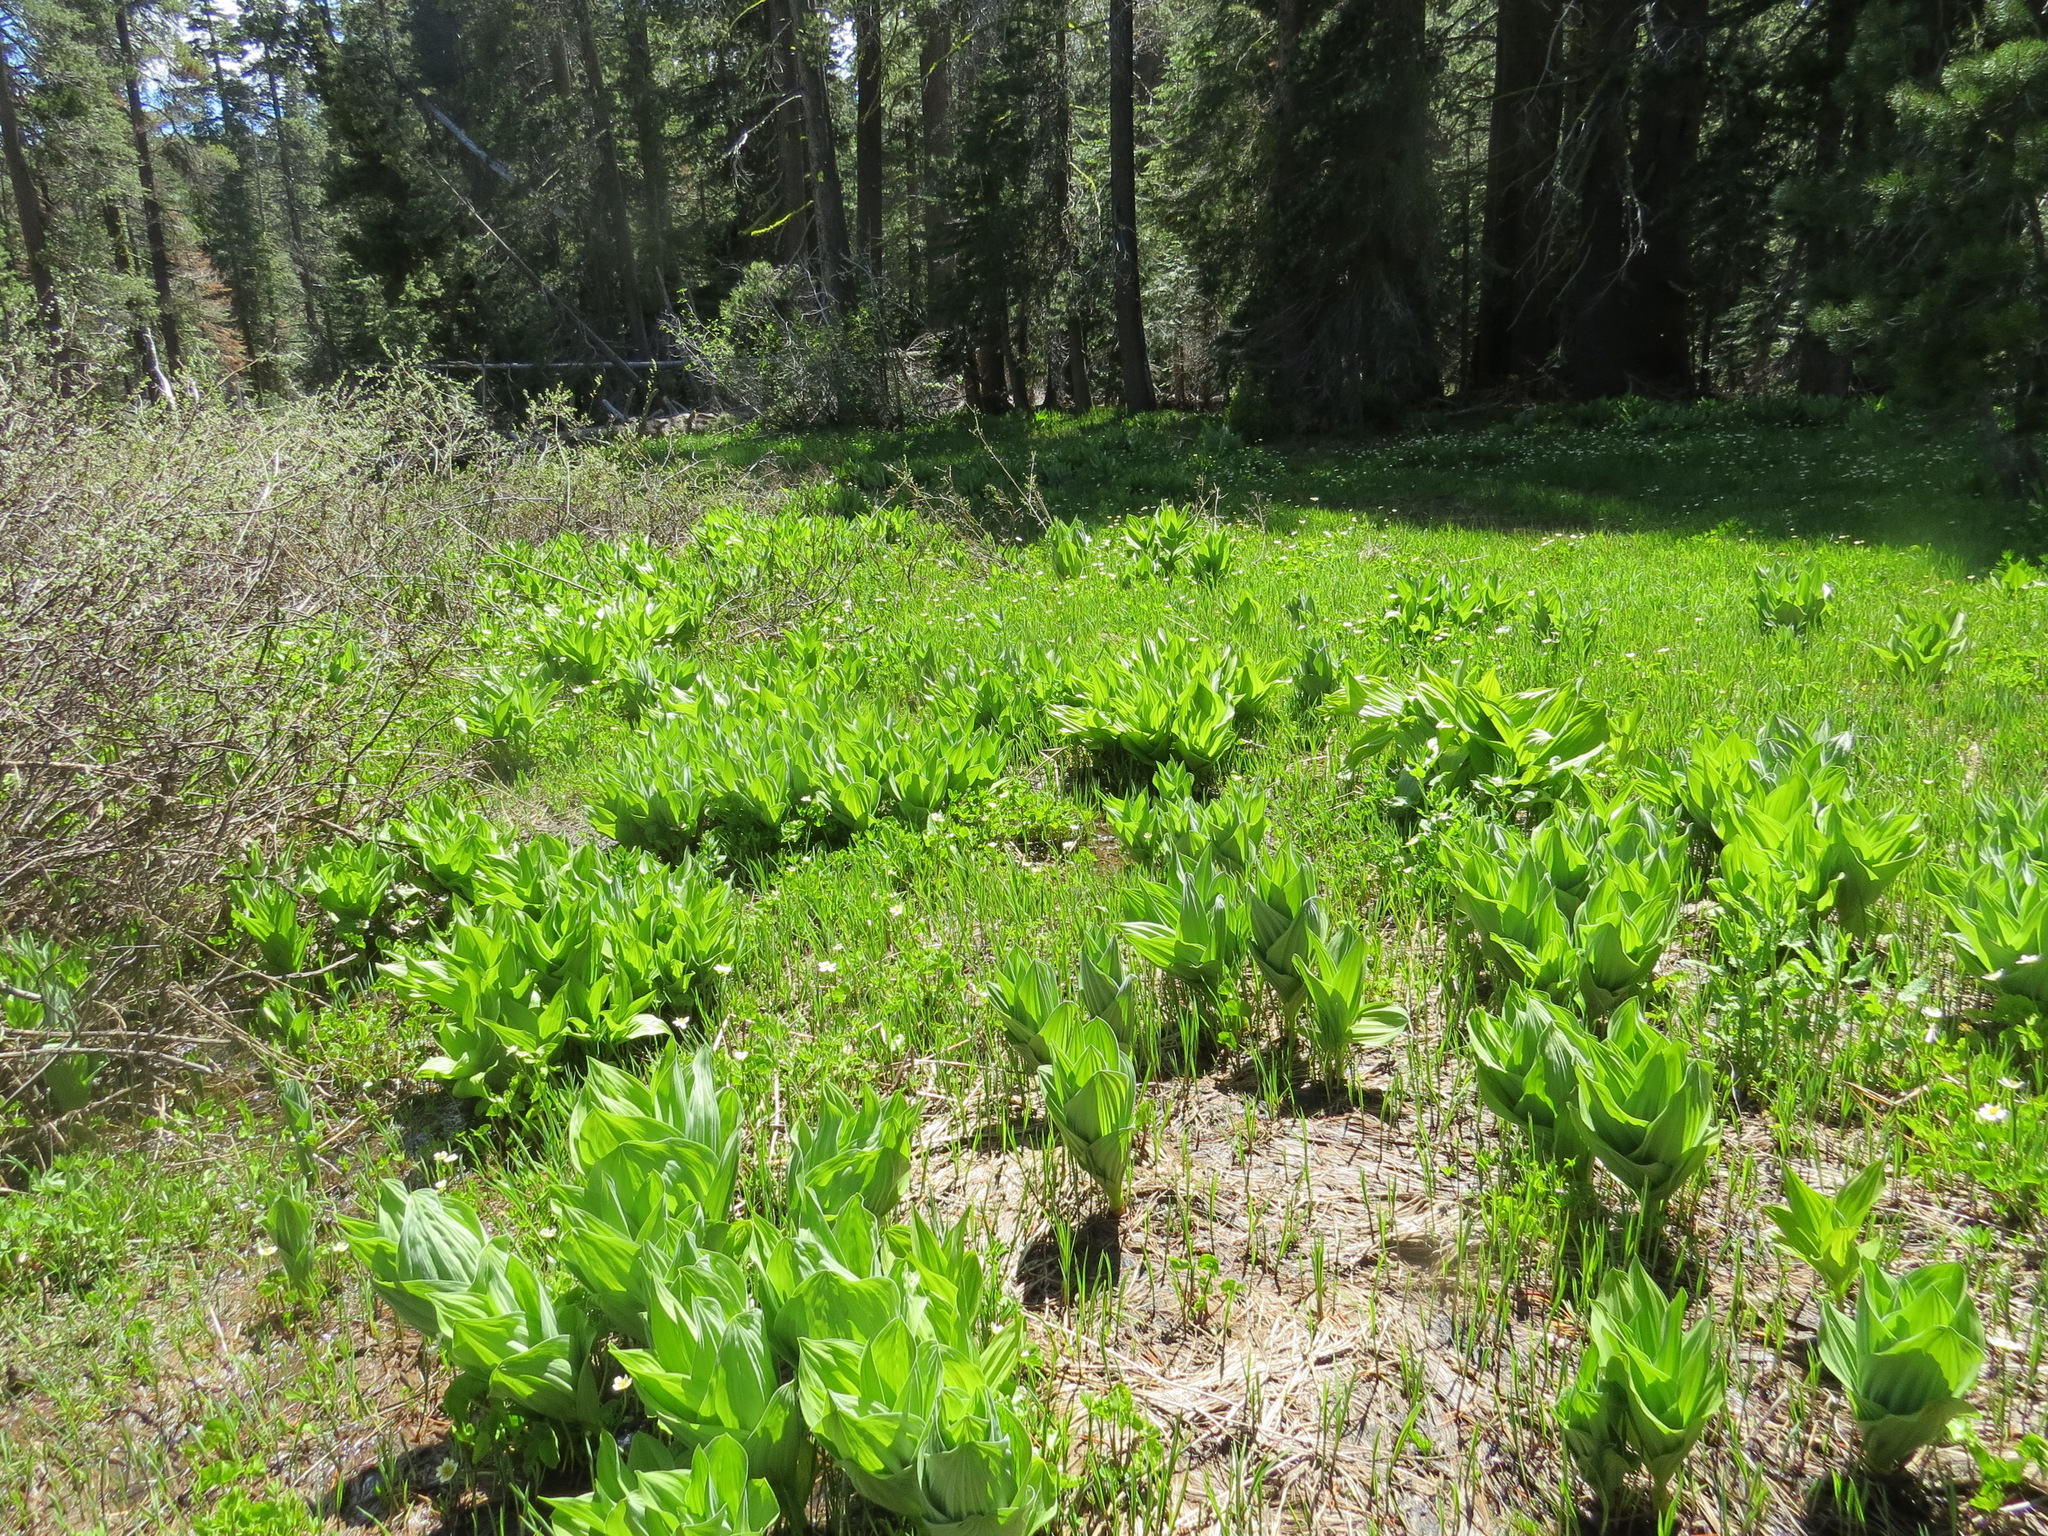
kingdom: Plantae
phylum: Tracheophyta
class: Liliopsida
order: Liliales
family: Melanthiaceae
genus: Veratrum
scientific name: Veratrum californicum
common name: California veratrum
